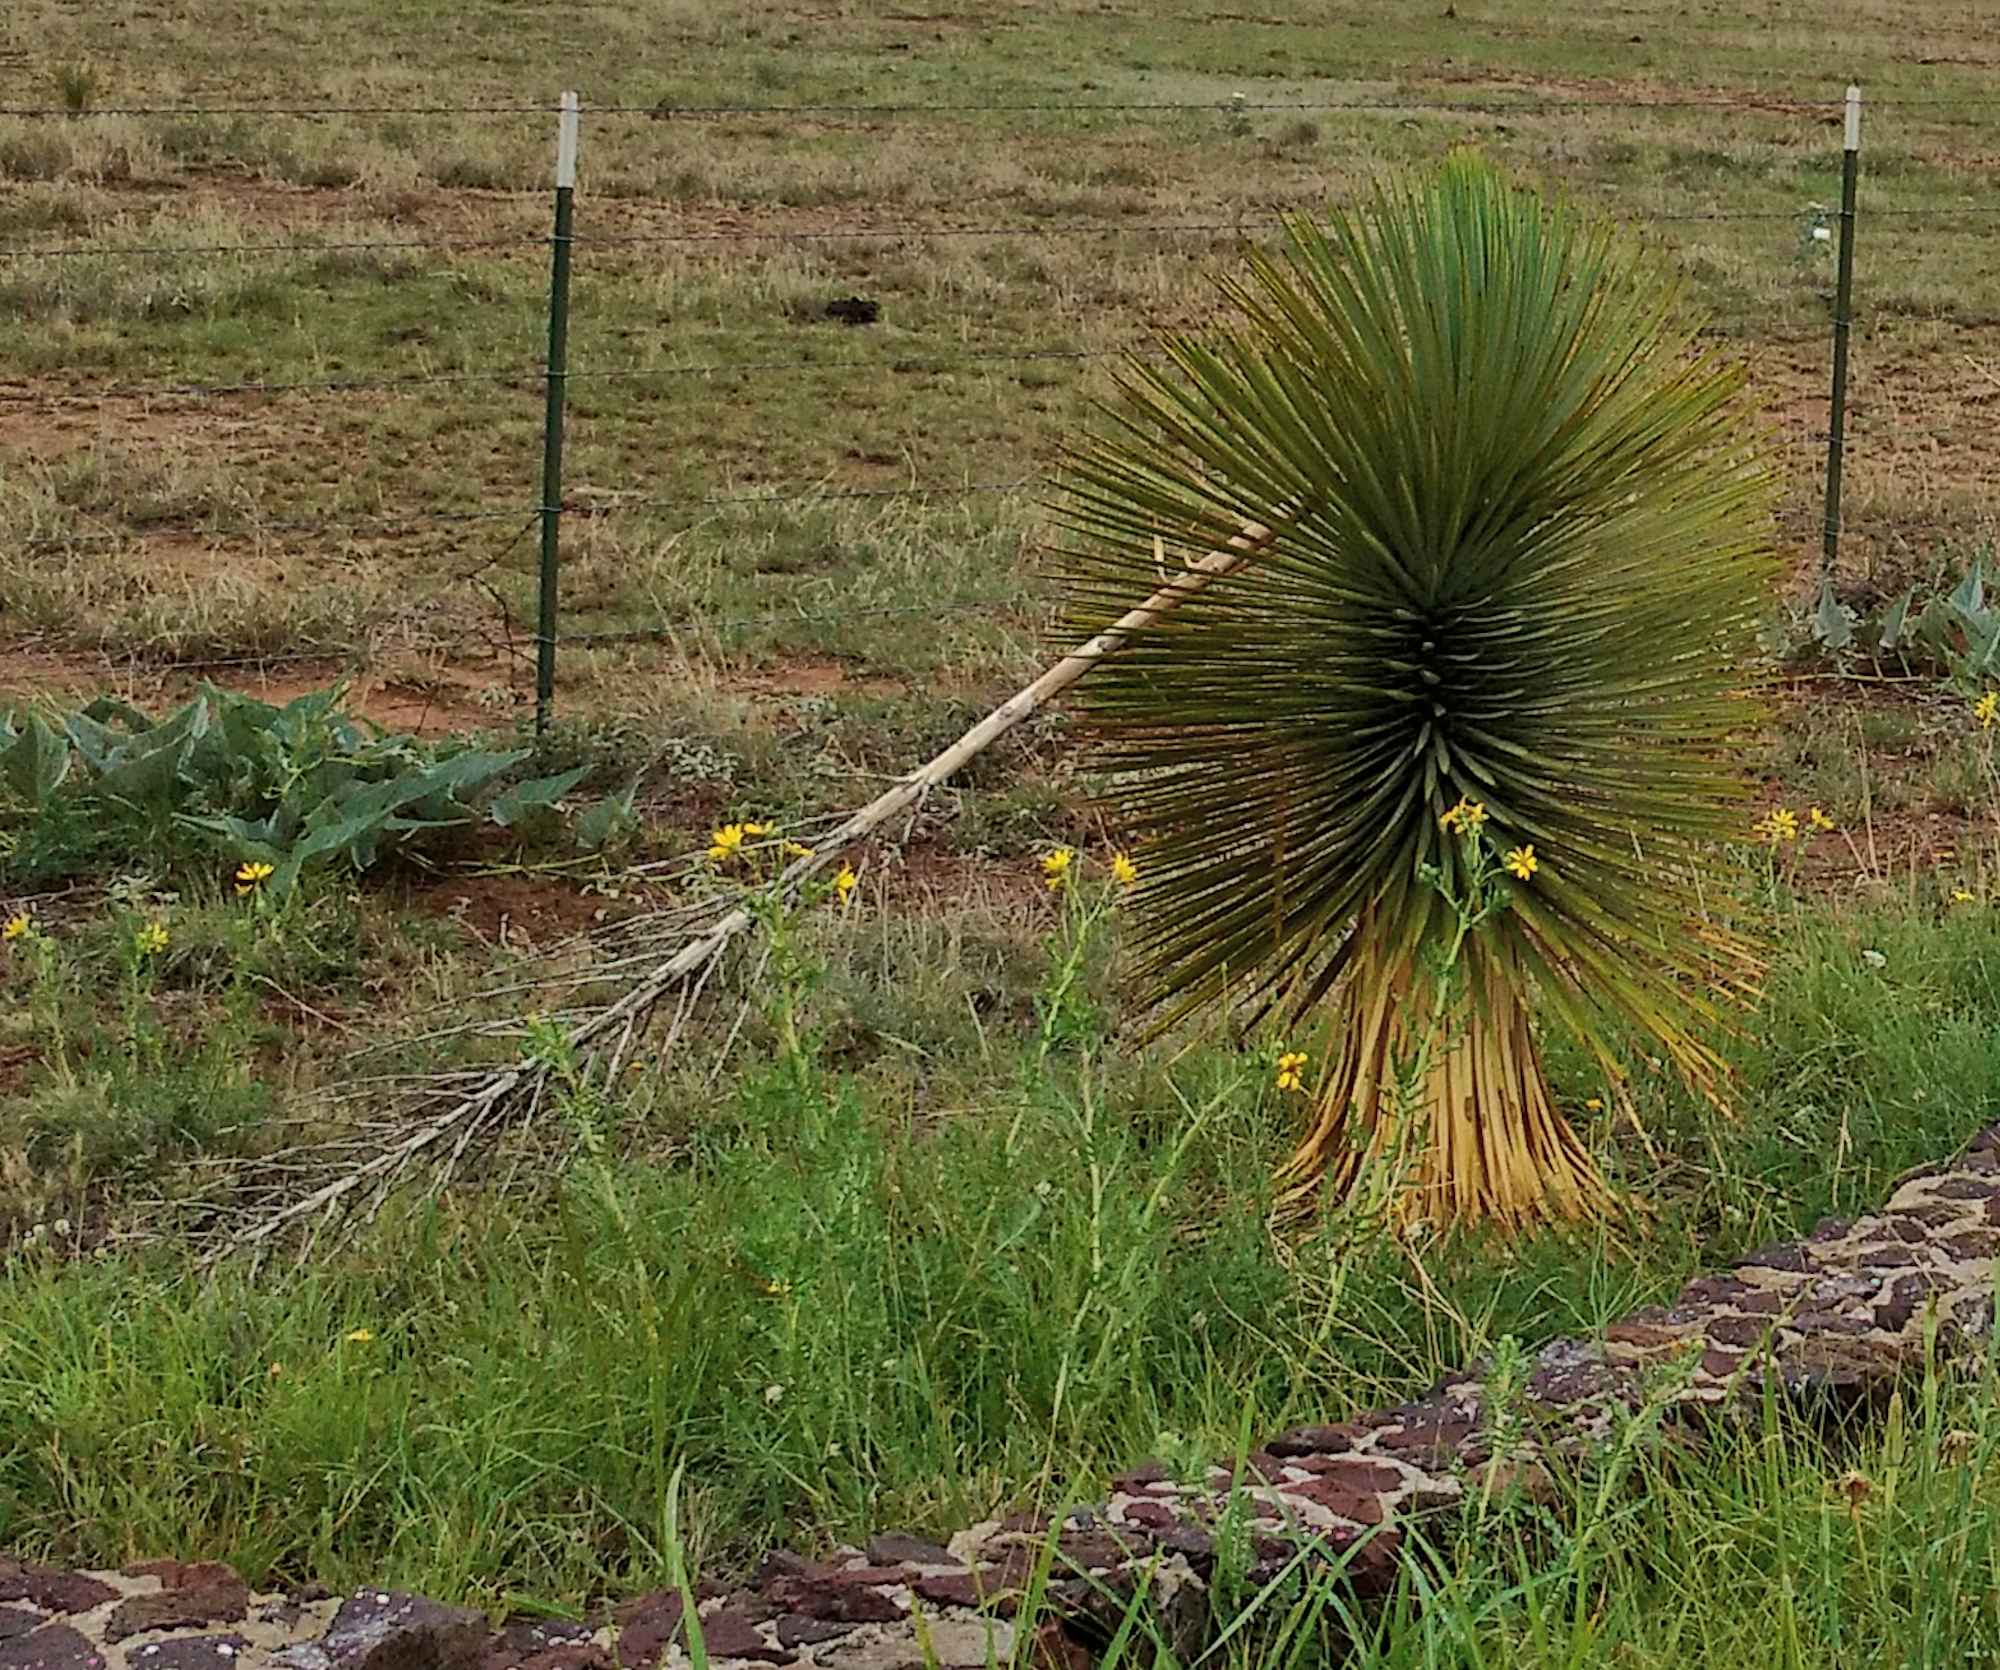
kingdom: Plantae
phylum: Tracheophyta
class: Liliopsida
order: Asparagales
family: Asparagaceae
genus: Yucca
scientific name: Yucca thompsoniana
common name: Trans-pecos yucca
